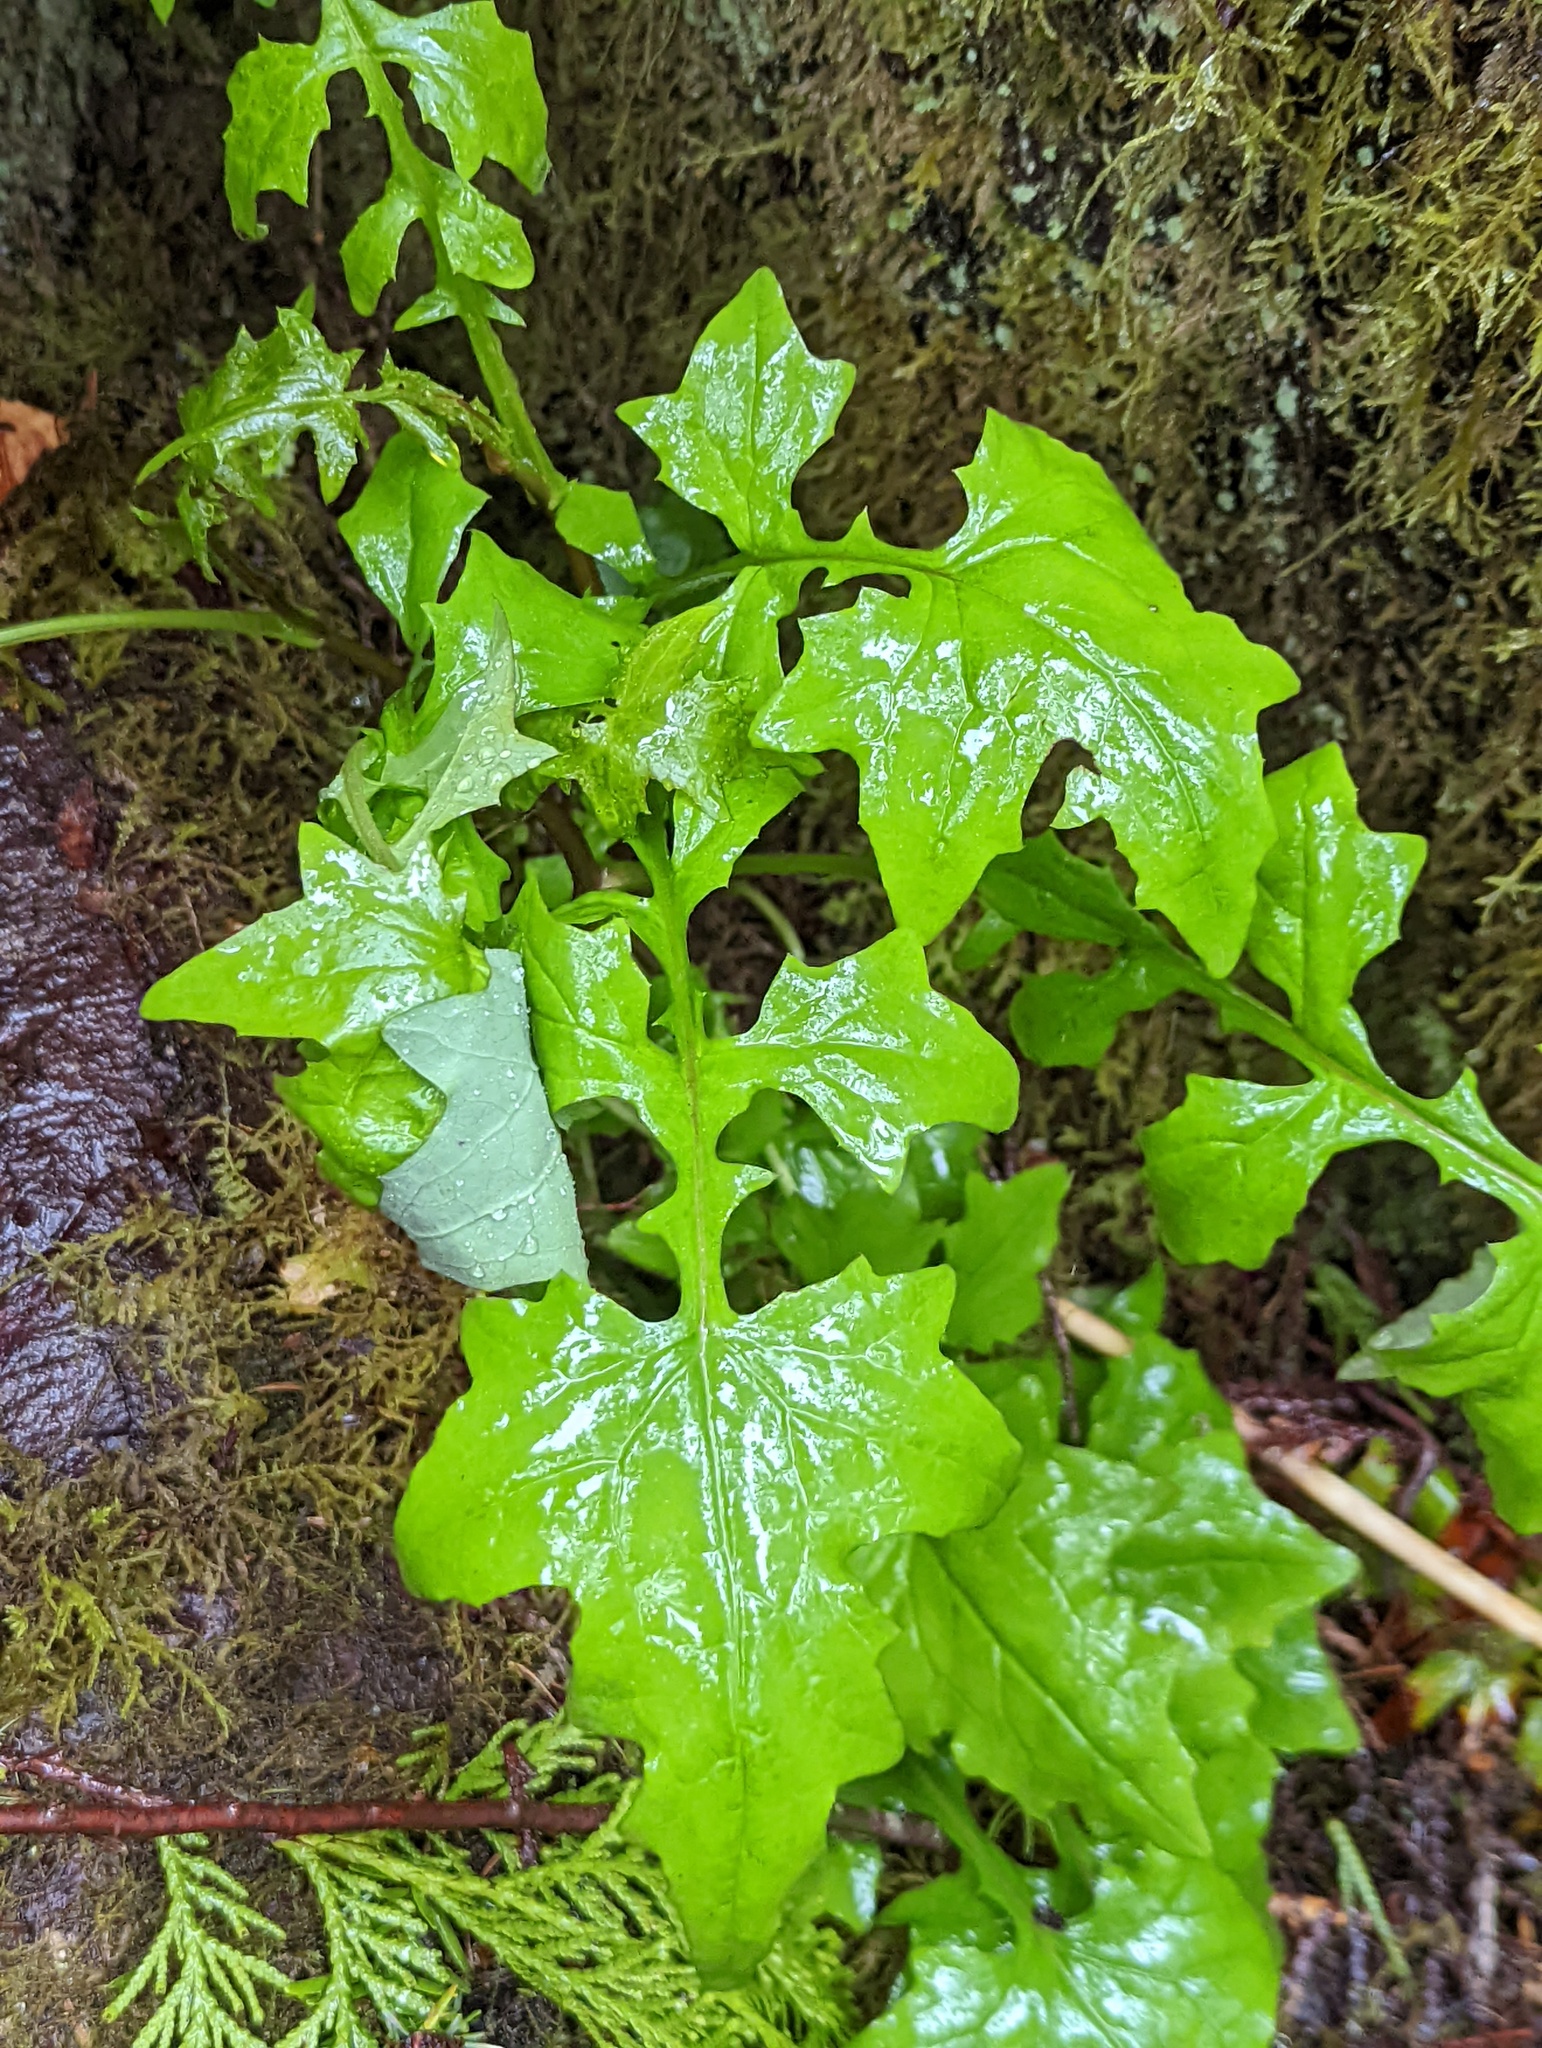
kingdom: Plantae
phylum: Tracheophyta
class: Magnoliopsida
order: Asterales
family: Asteraceae
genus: Mycelis
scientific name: Mycelis muralis
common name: Wall lettuce
